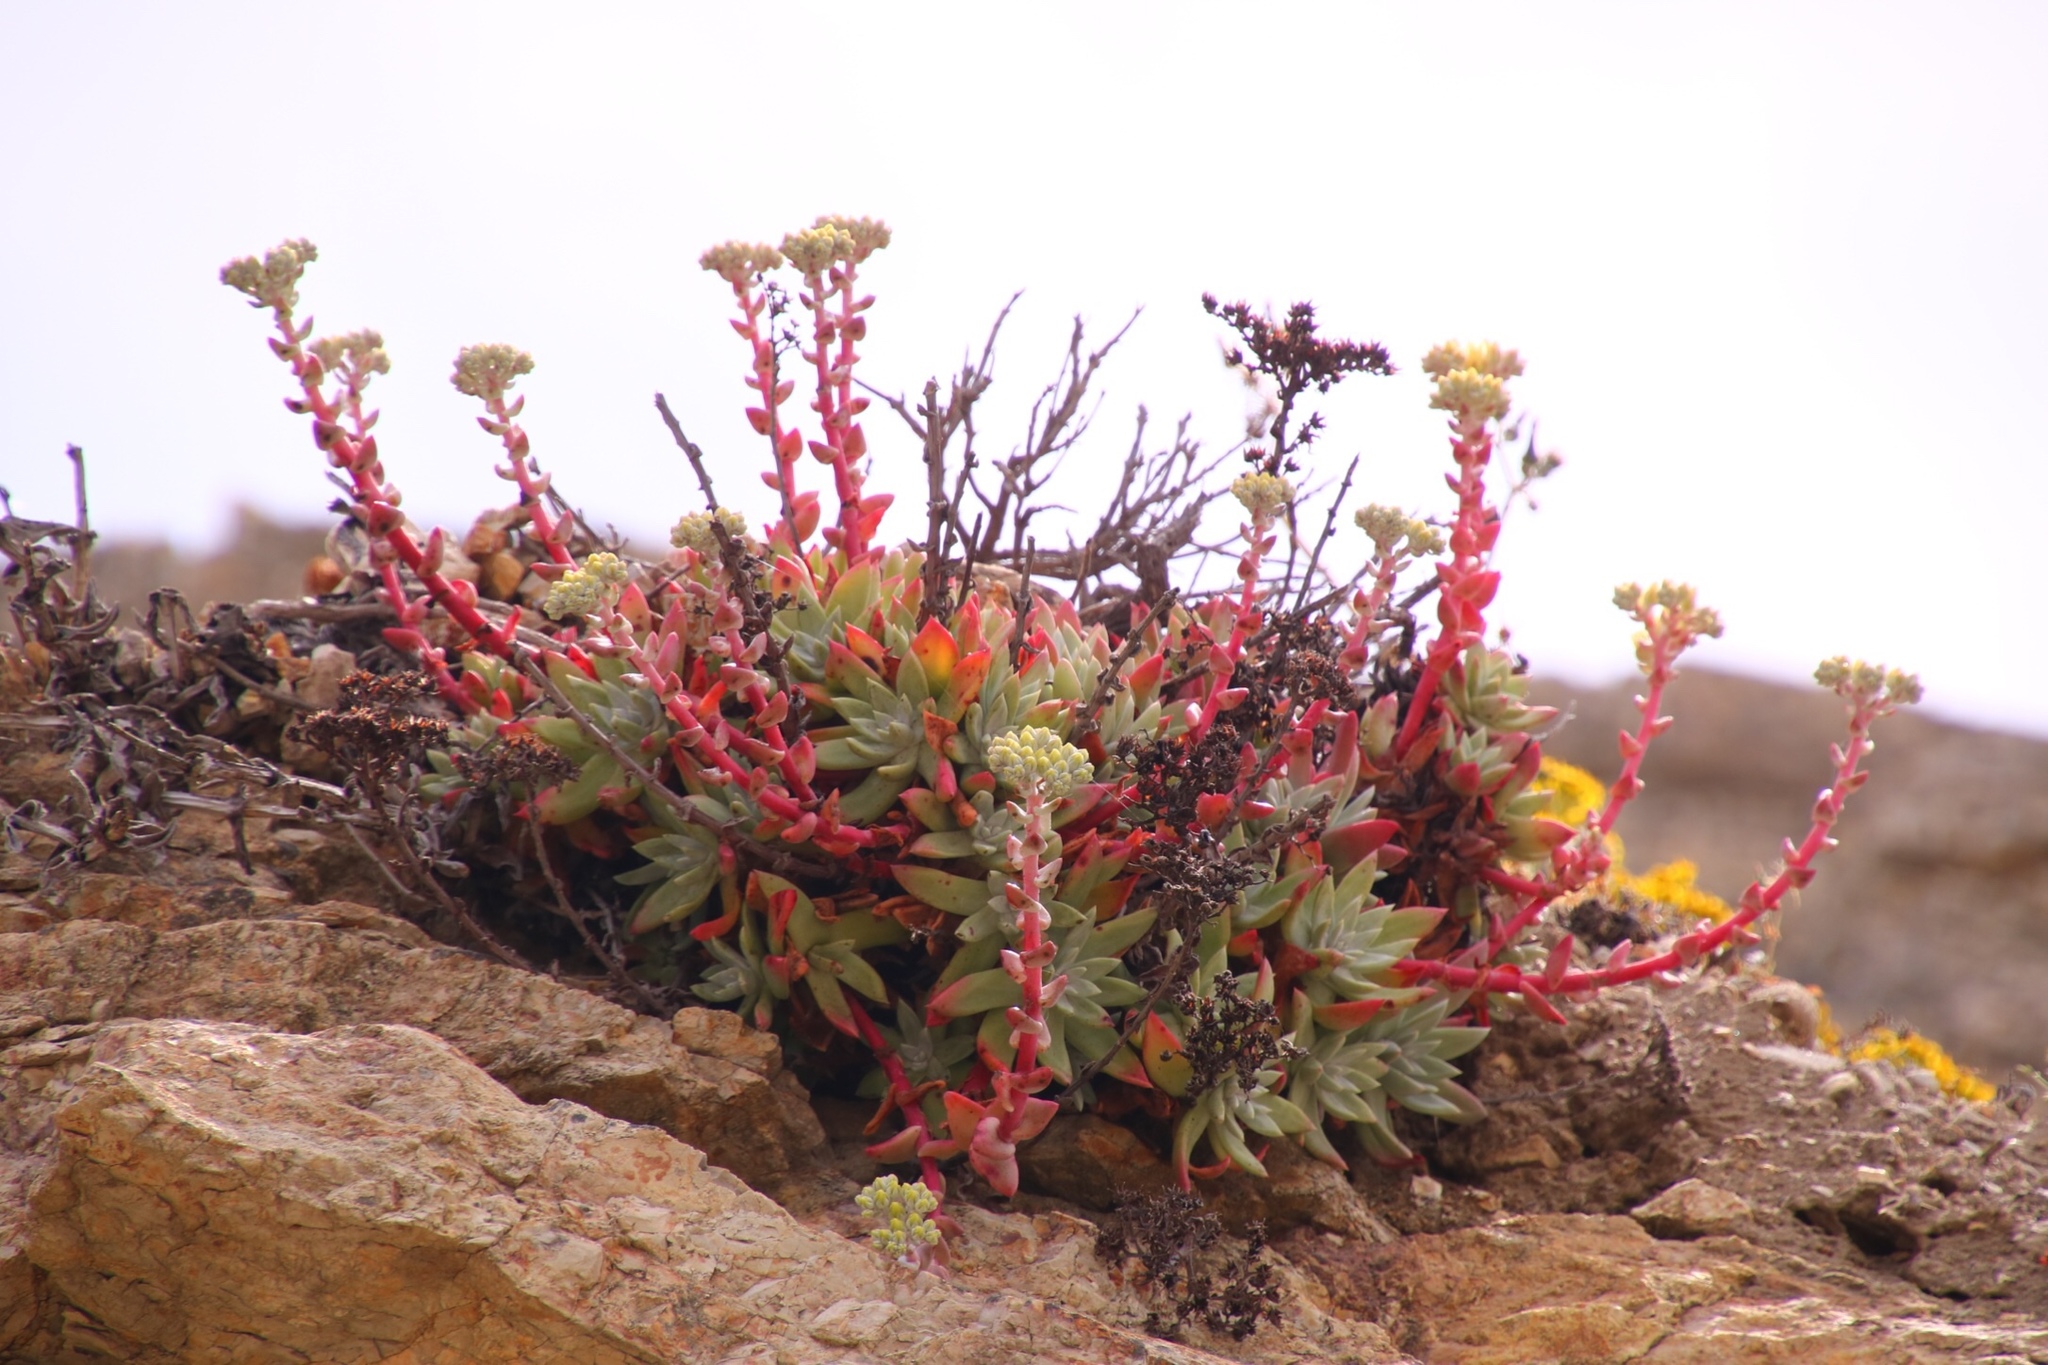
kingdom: Plantae
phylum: Tracheophyta
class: Magnoliopsida
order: Saxifragales
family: Crassulaceae
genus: Dudleya
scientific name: Dudleya farinosa
